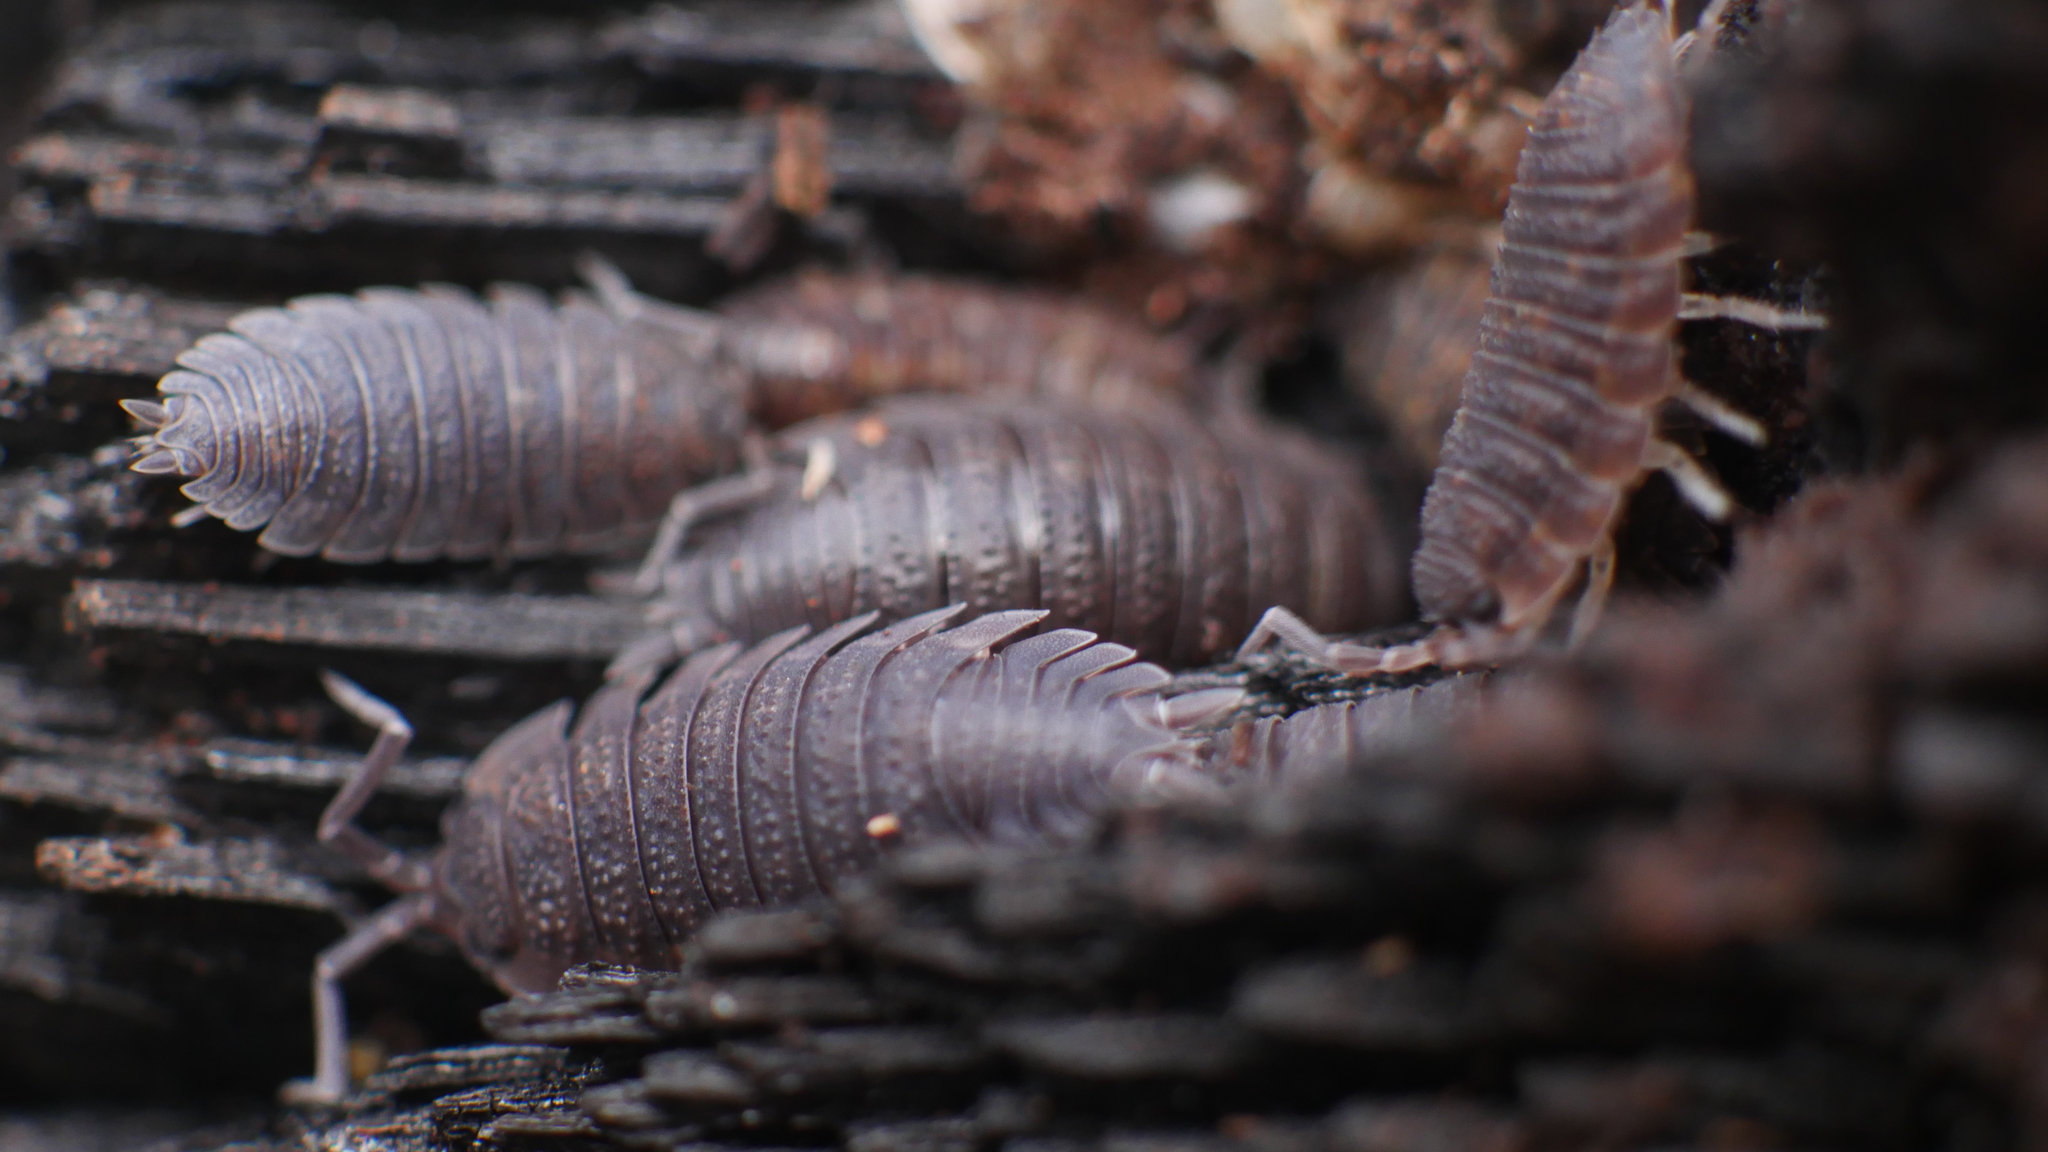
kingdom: Animalia
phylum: Arthropoda
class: Malacostraca
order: Isopoda
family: Porcellionidae
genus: Porcellio
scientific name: Porcellio scaber
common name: Common rough woodlouse
